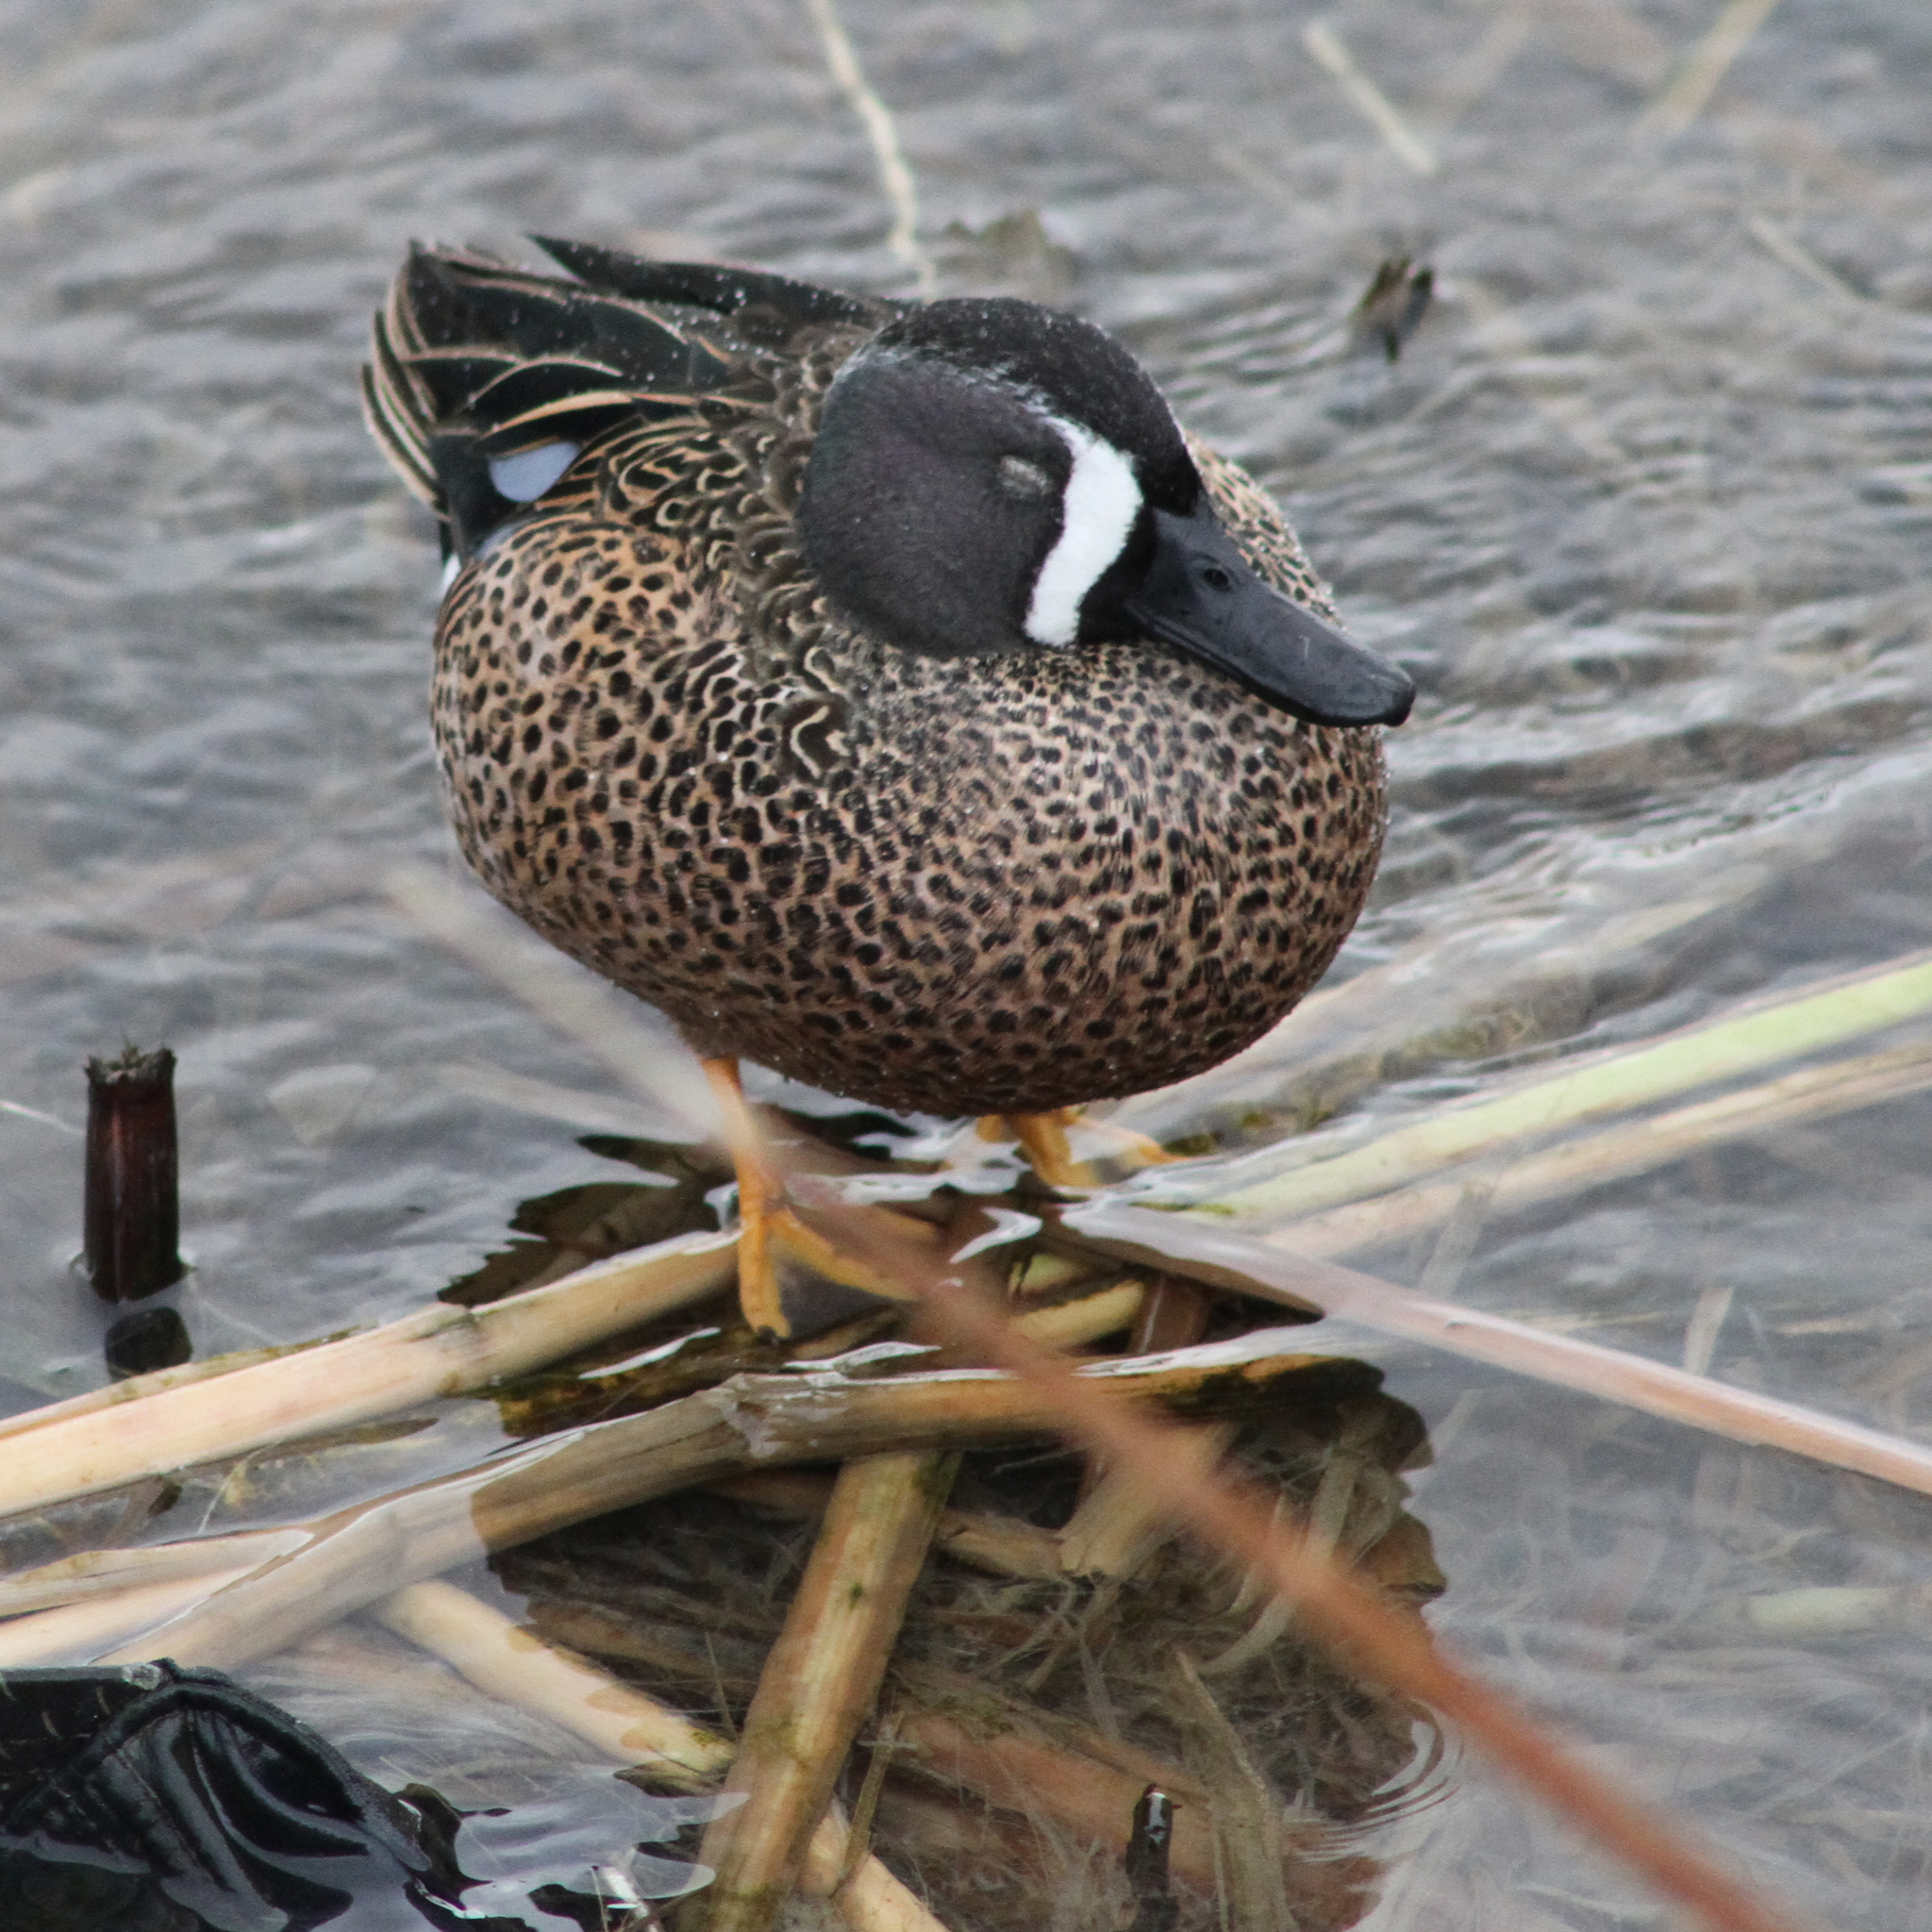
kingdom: Animalia
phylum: Chordata
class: Aves
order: Anseriformes
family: Anatidae
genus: Spatula
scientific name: Spatula discors
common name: Blue-winged teal
